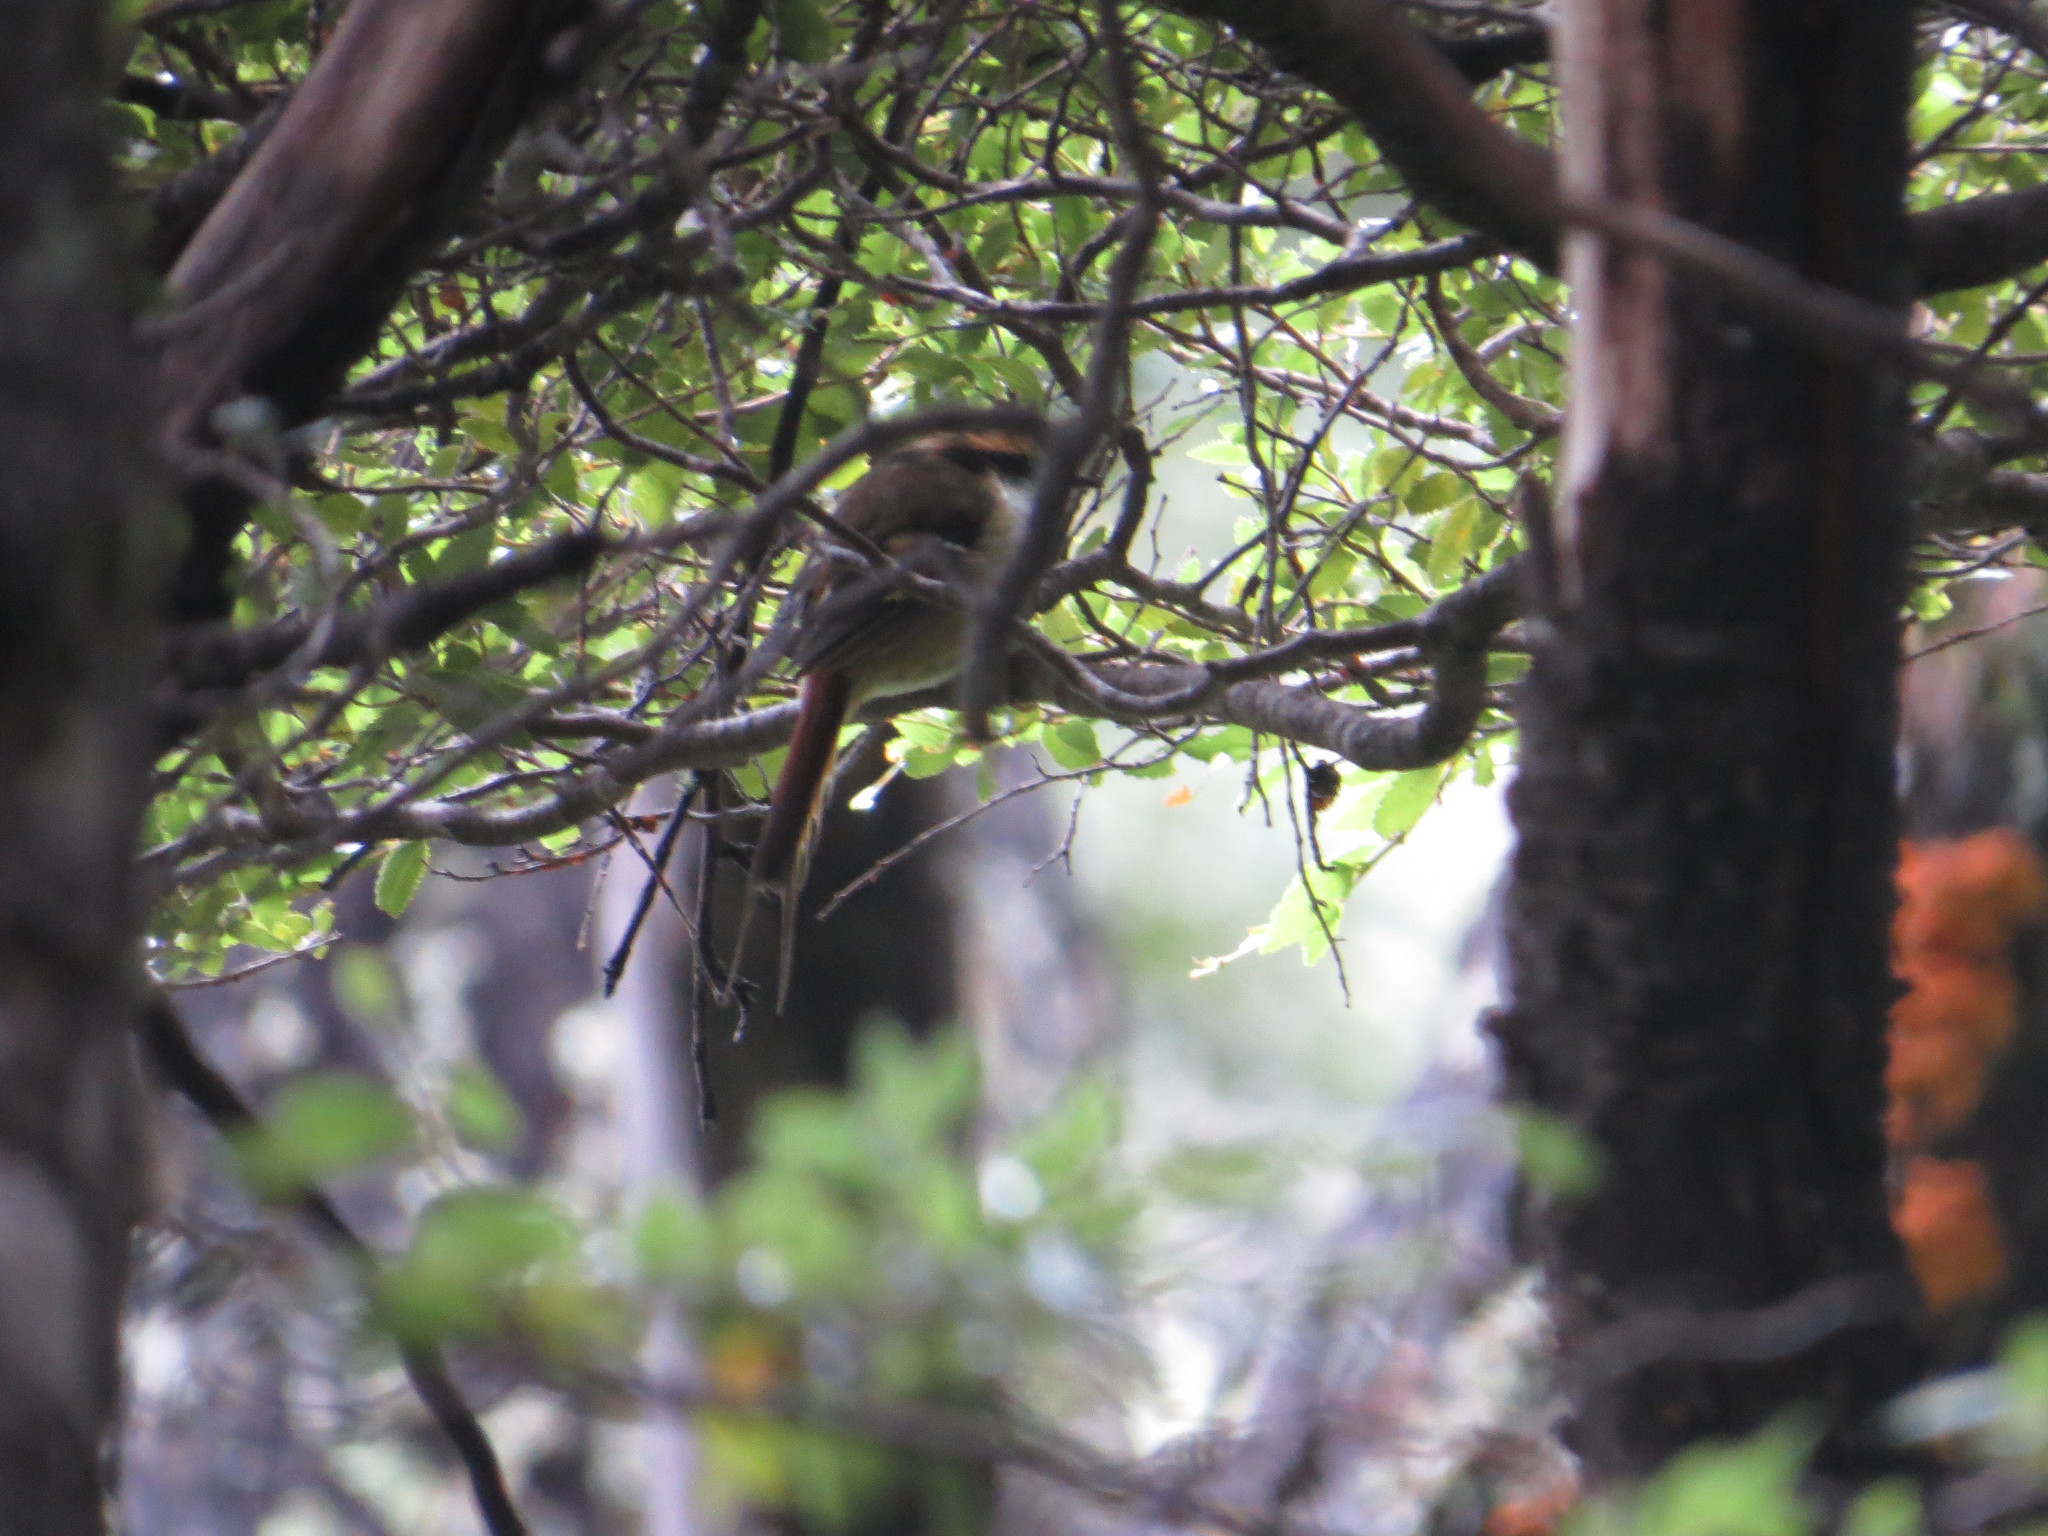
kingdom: Animalia
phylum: Chordata
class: Aves
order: Passeriformes
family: Furnariidae
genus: Aphrastura
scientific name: Aphrastura spinicauda
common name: Thorn-tailed rayadito
